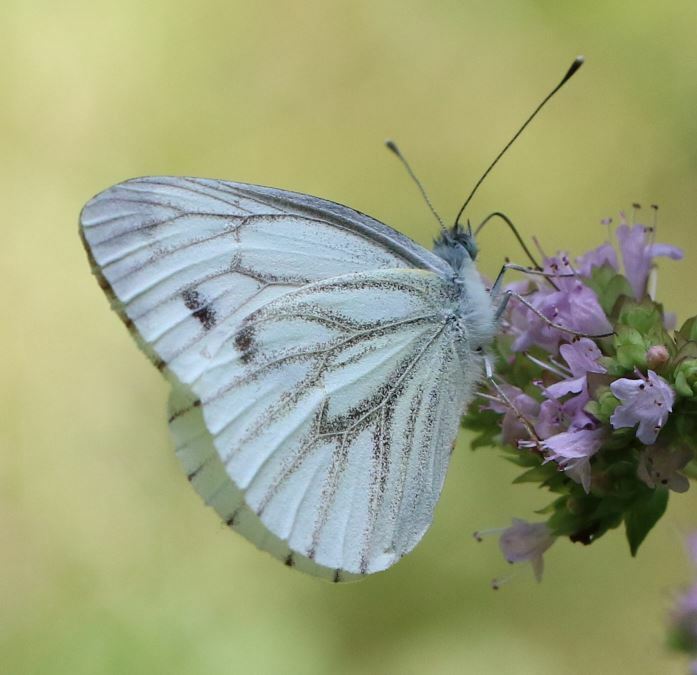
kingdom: Animalia
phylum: Arthropoda
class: Insecta
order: Lepidoptera
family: Pieridae
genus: Pieris
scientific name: Pieris napi
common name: Green-veined white
